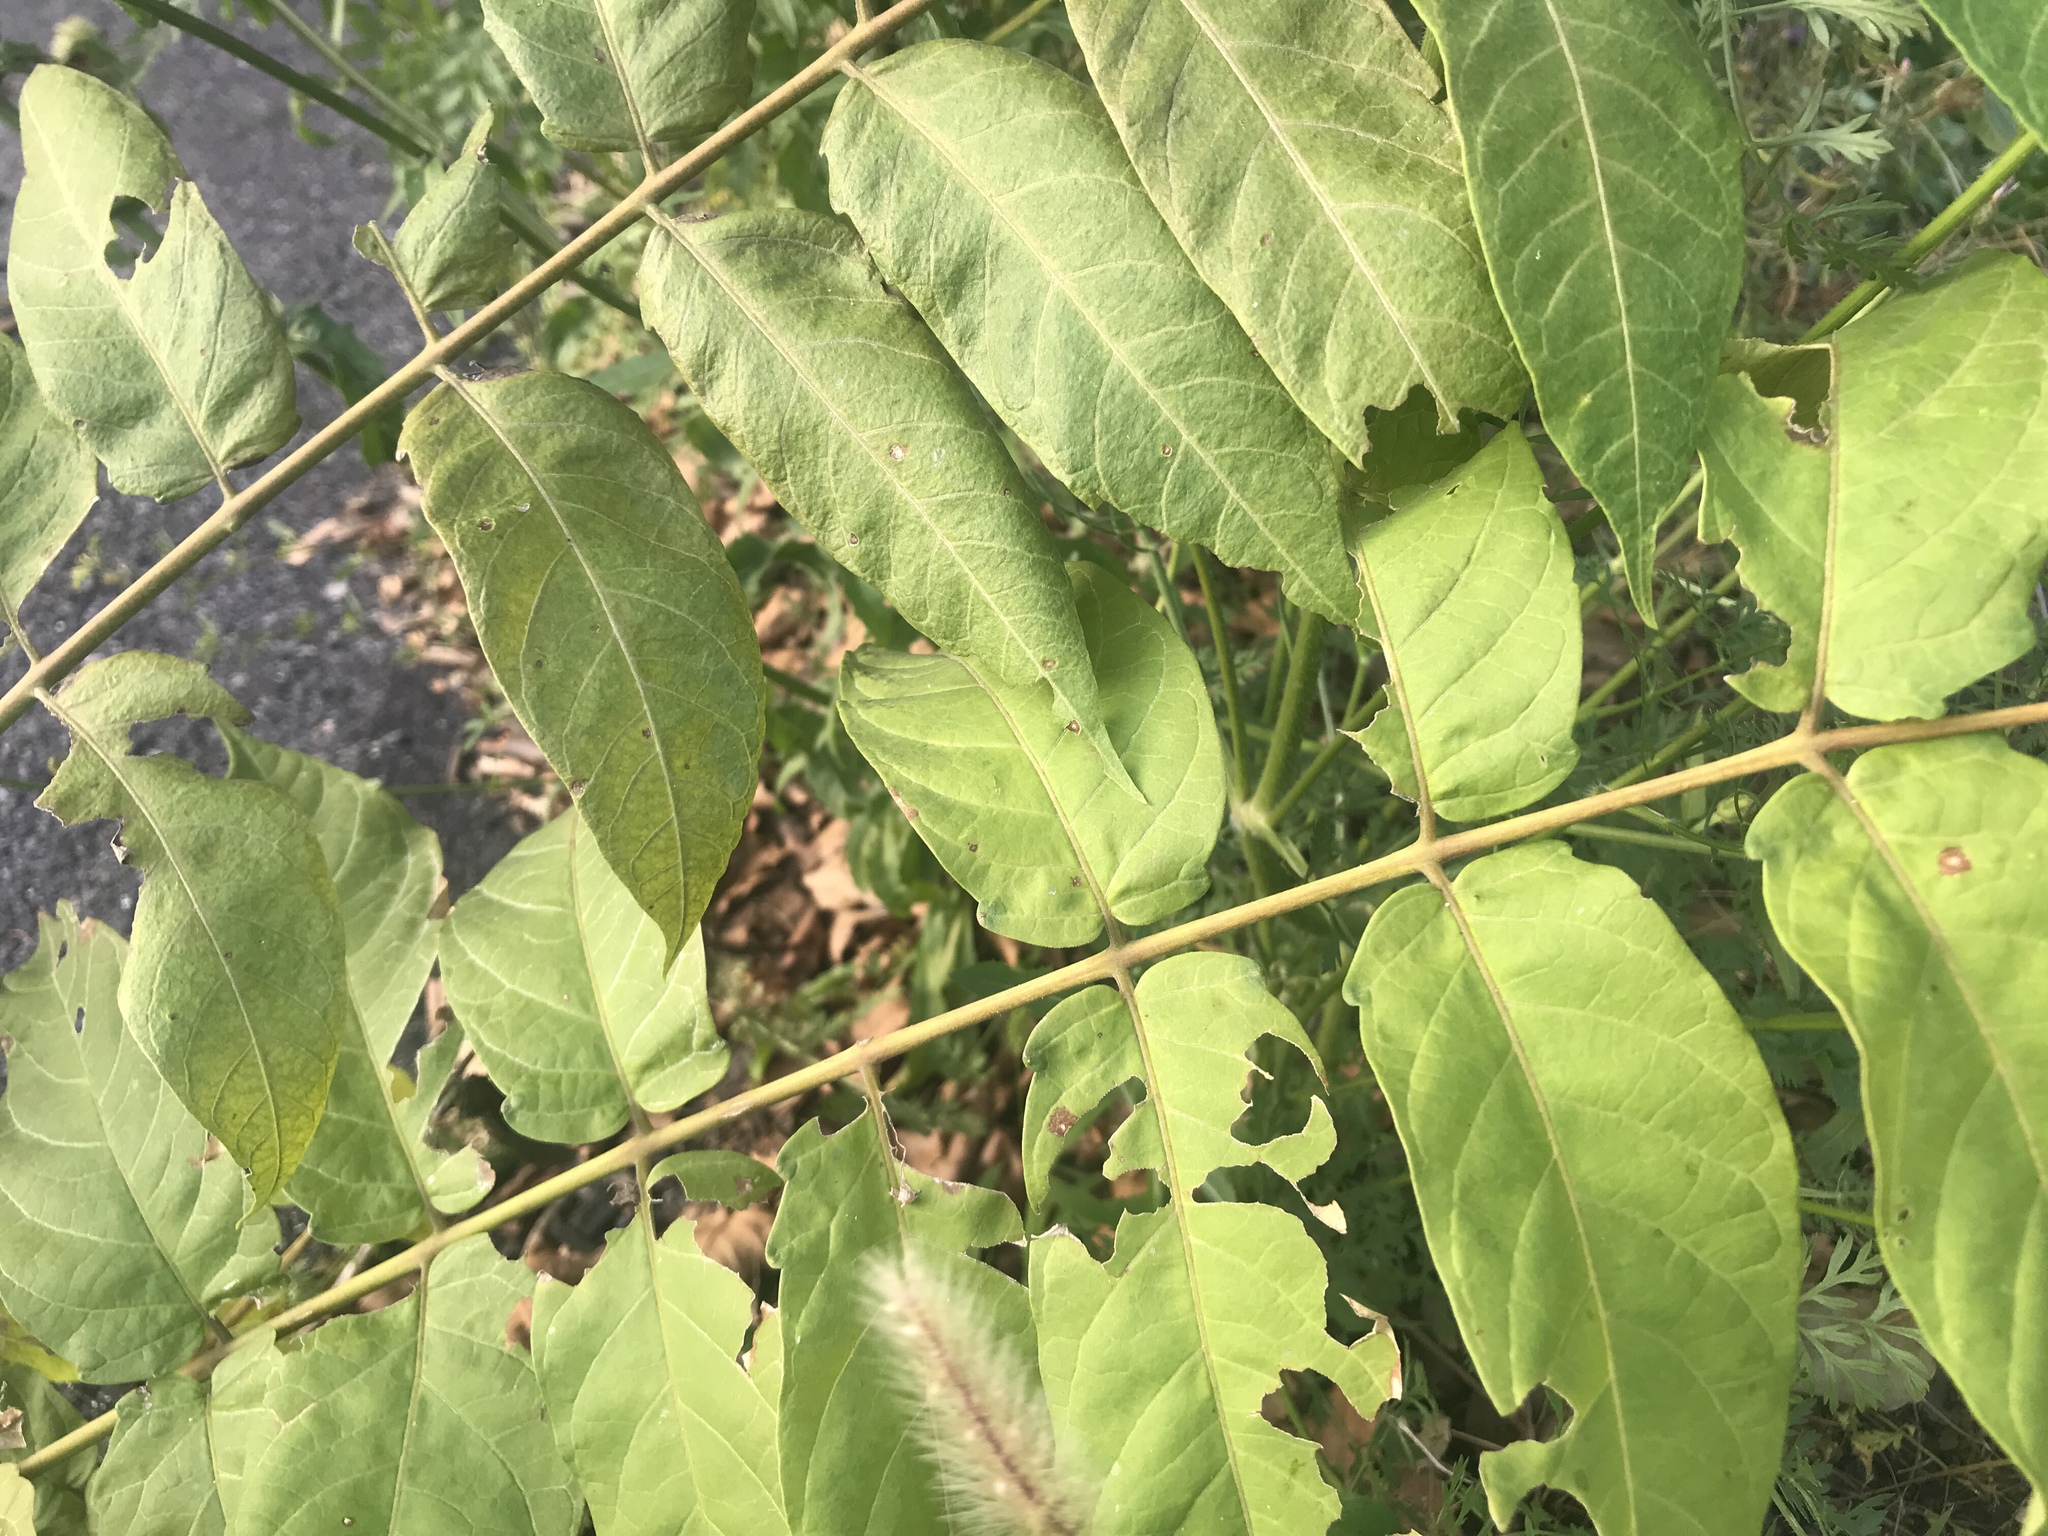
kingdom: Plantae
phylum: Tracheophyta
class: Magnoliopsida
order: Sapindales
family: Simaroubaceae
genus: Ailanthus
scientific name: Ailanthus altissima
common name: Tree-of-heaven
